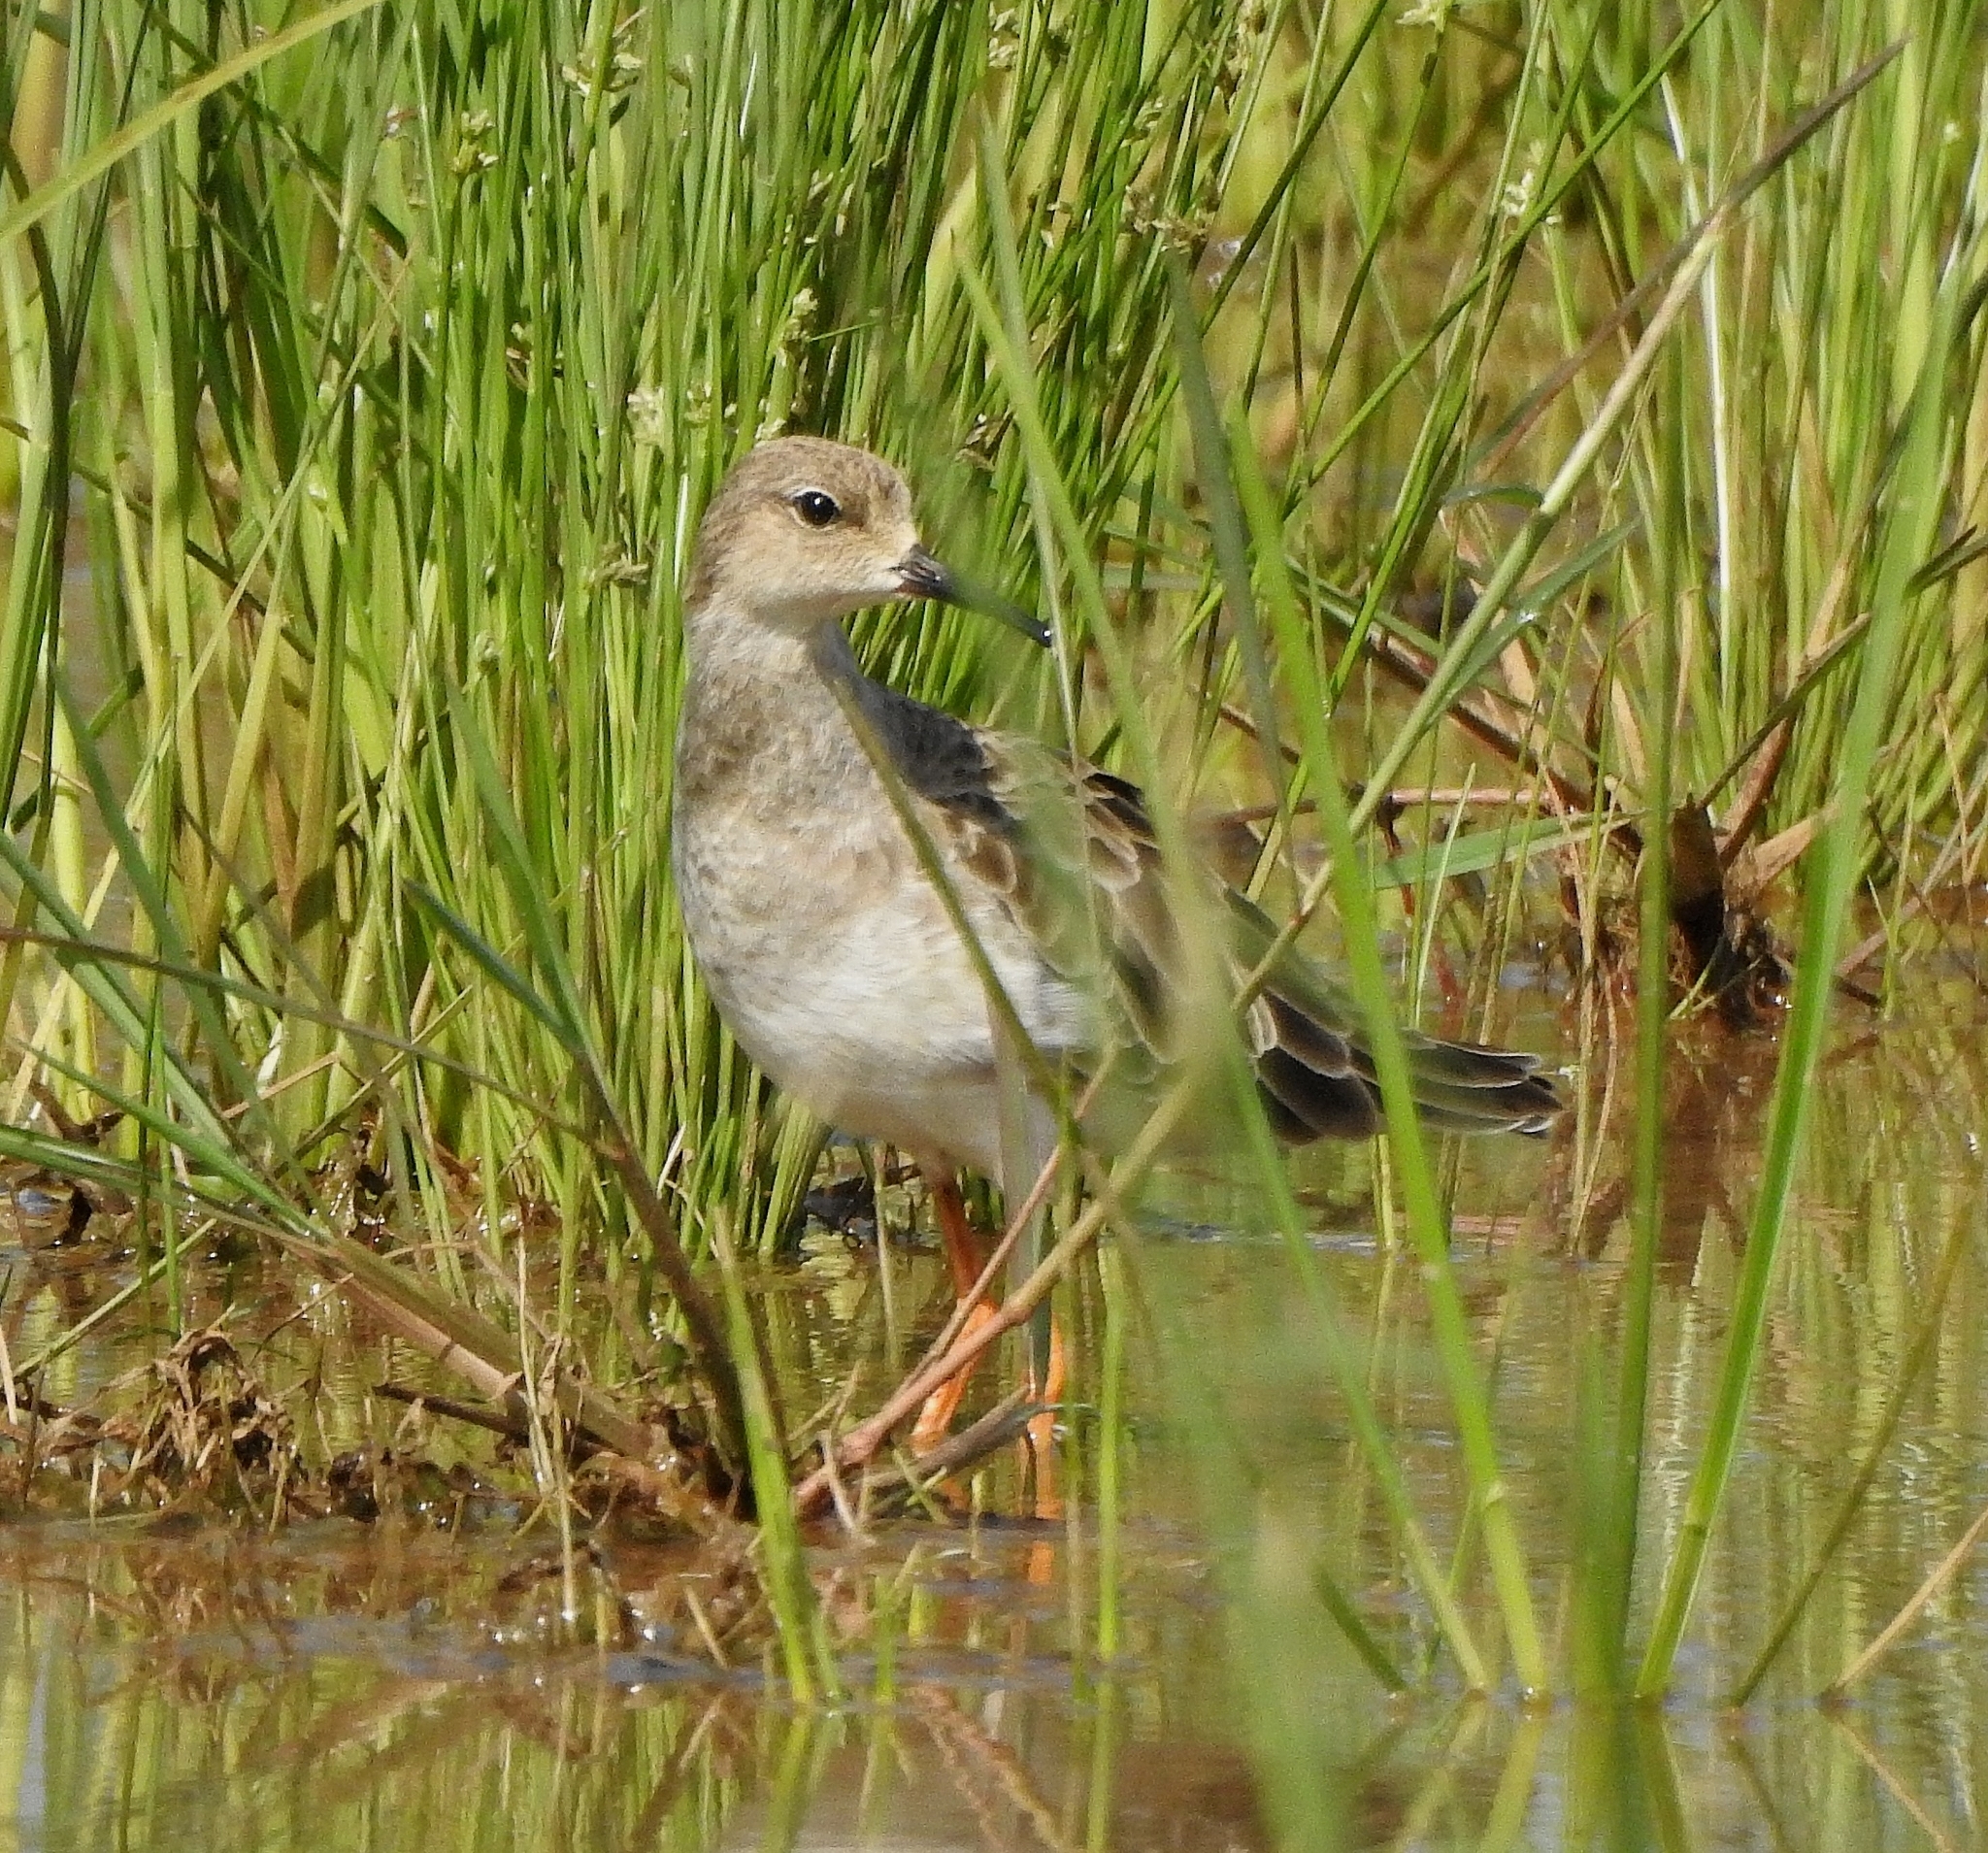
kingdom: Animalia
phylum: Chordata
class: Aves
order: Charadriiformes
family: Scolopacidae
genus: Calidris
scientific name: Calidris pugnax
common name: Ruff
